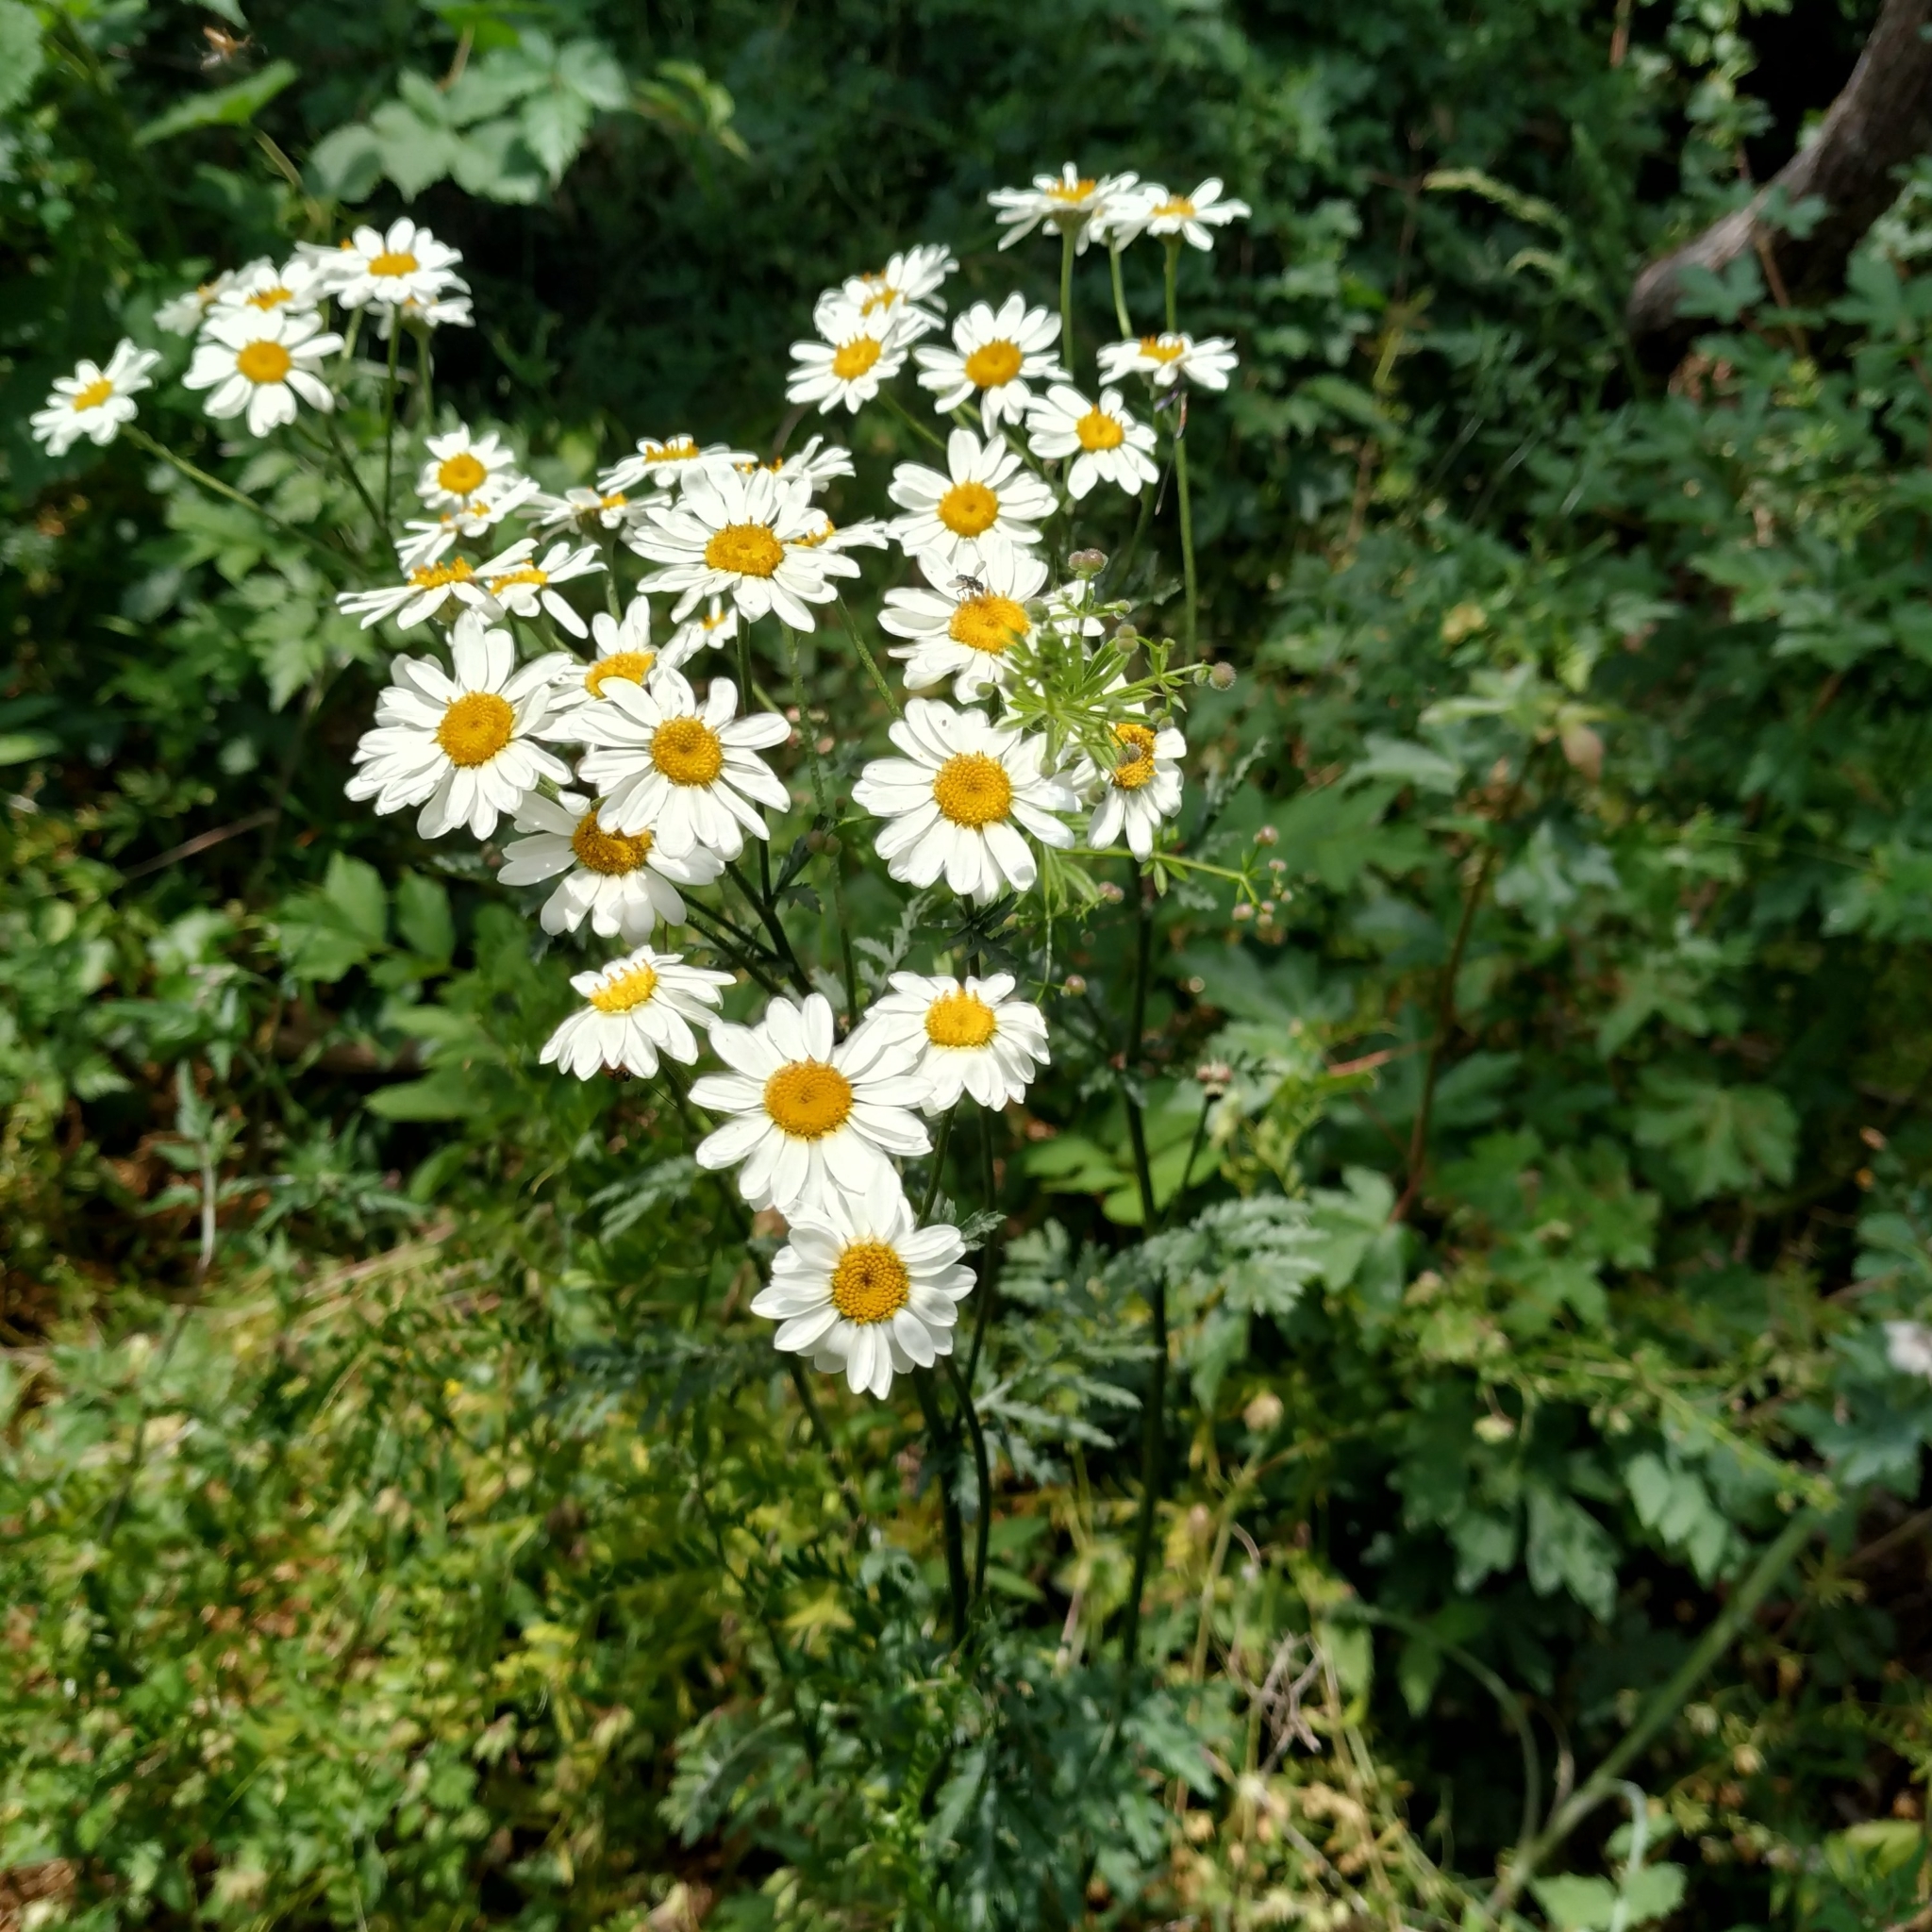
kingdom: Plantae
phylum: Tracheophyta
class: Magnoliopsida
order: Asterales
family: Asteraceae
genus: Tanacetum
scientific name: Tanacetum corymbosum
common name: Scentless feverfew
